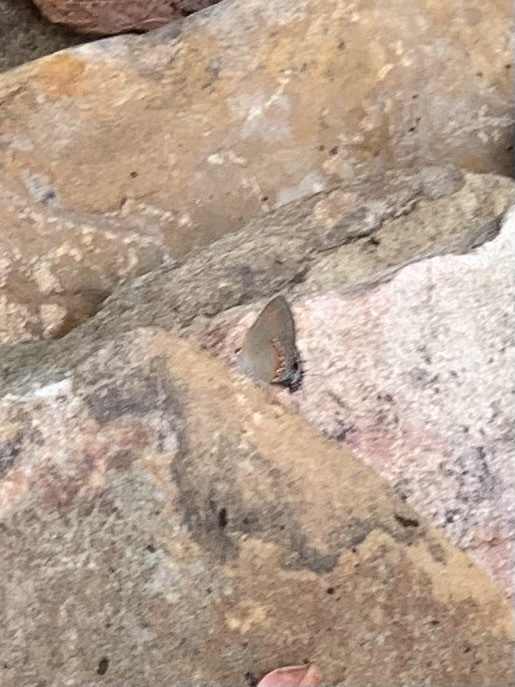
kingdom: Animalia
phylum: Arthropoda
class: Insecta
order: Lepidoptera
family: Lycaenidae
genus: Calycopis
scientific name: Calycopis cecrops
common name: Red-banded hairstreak
